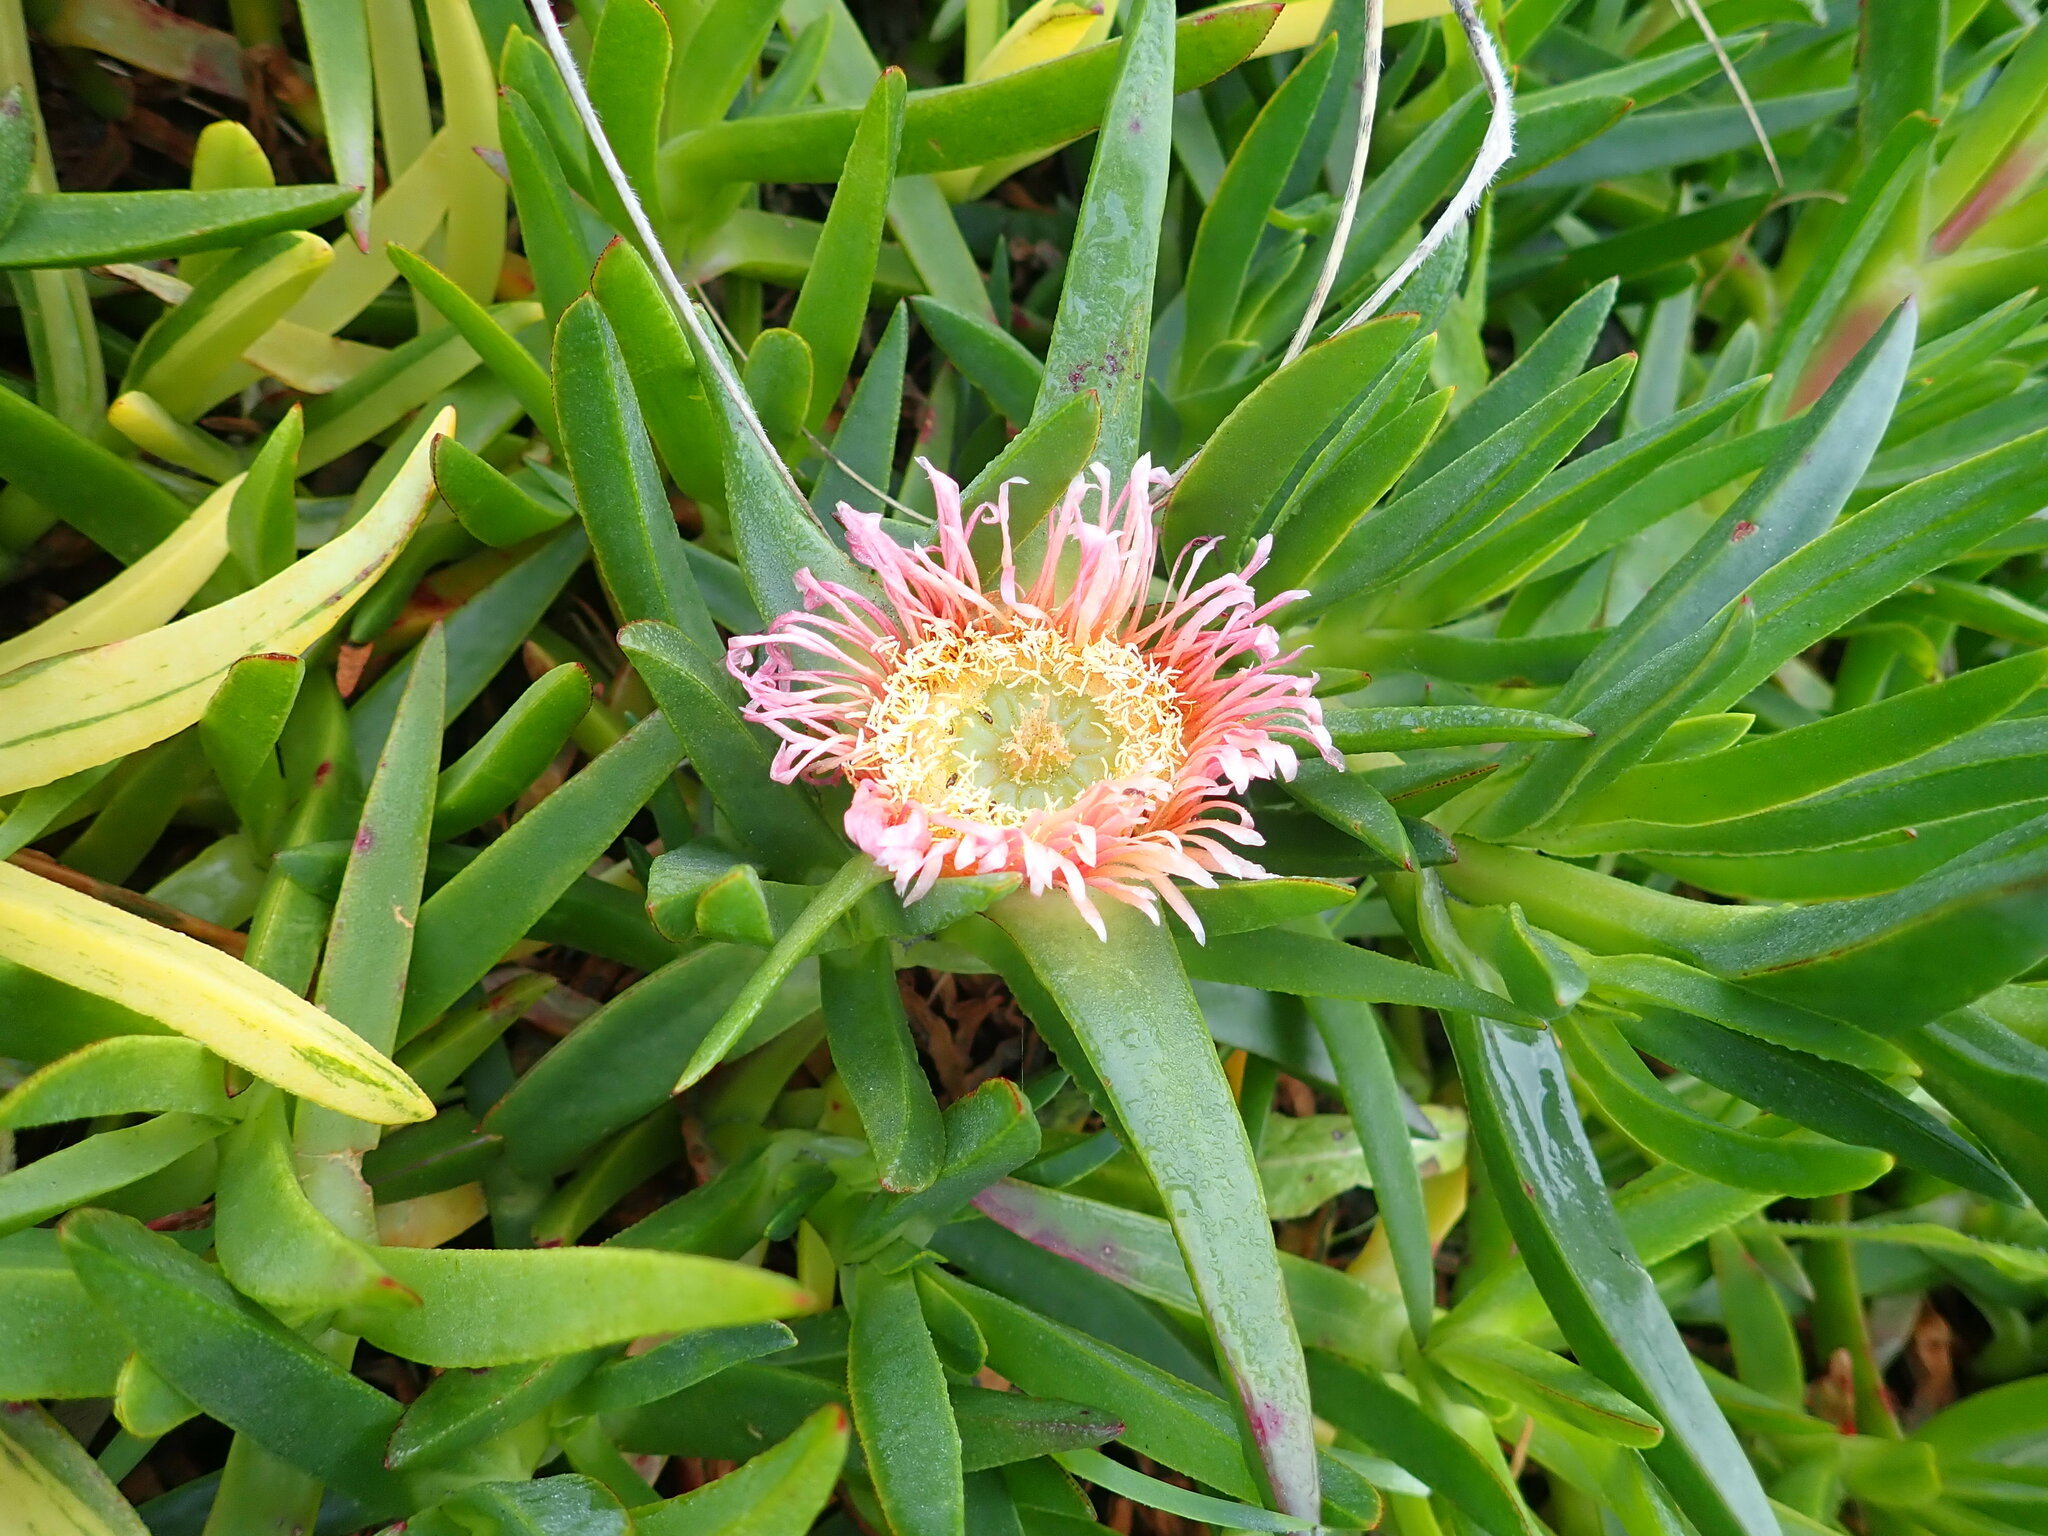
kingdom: Plantae
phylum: Tracheophyta
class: Magnoliopsida
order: Caryophyllales
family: Aizoaceae
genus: Carpobrotus
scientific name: Carpobrotus edulis
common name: Hottentot-fig
